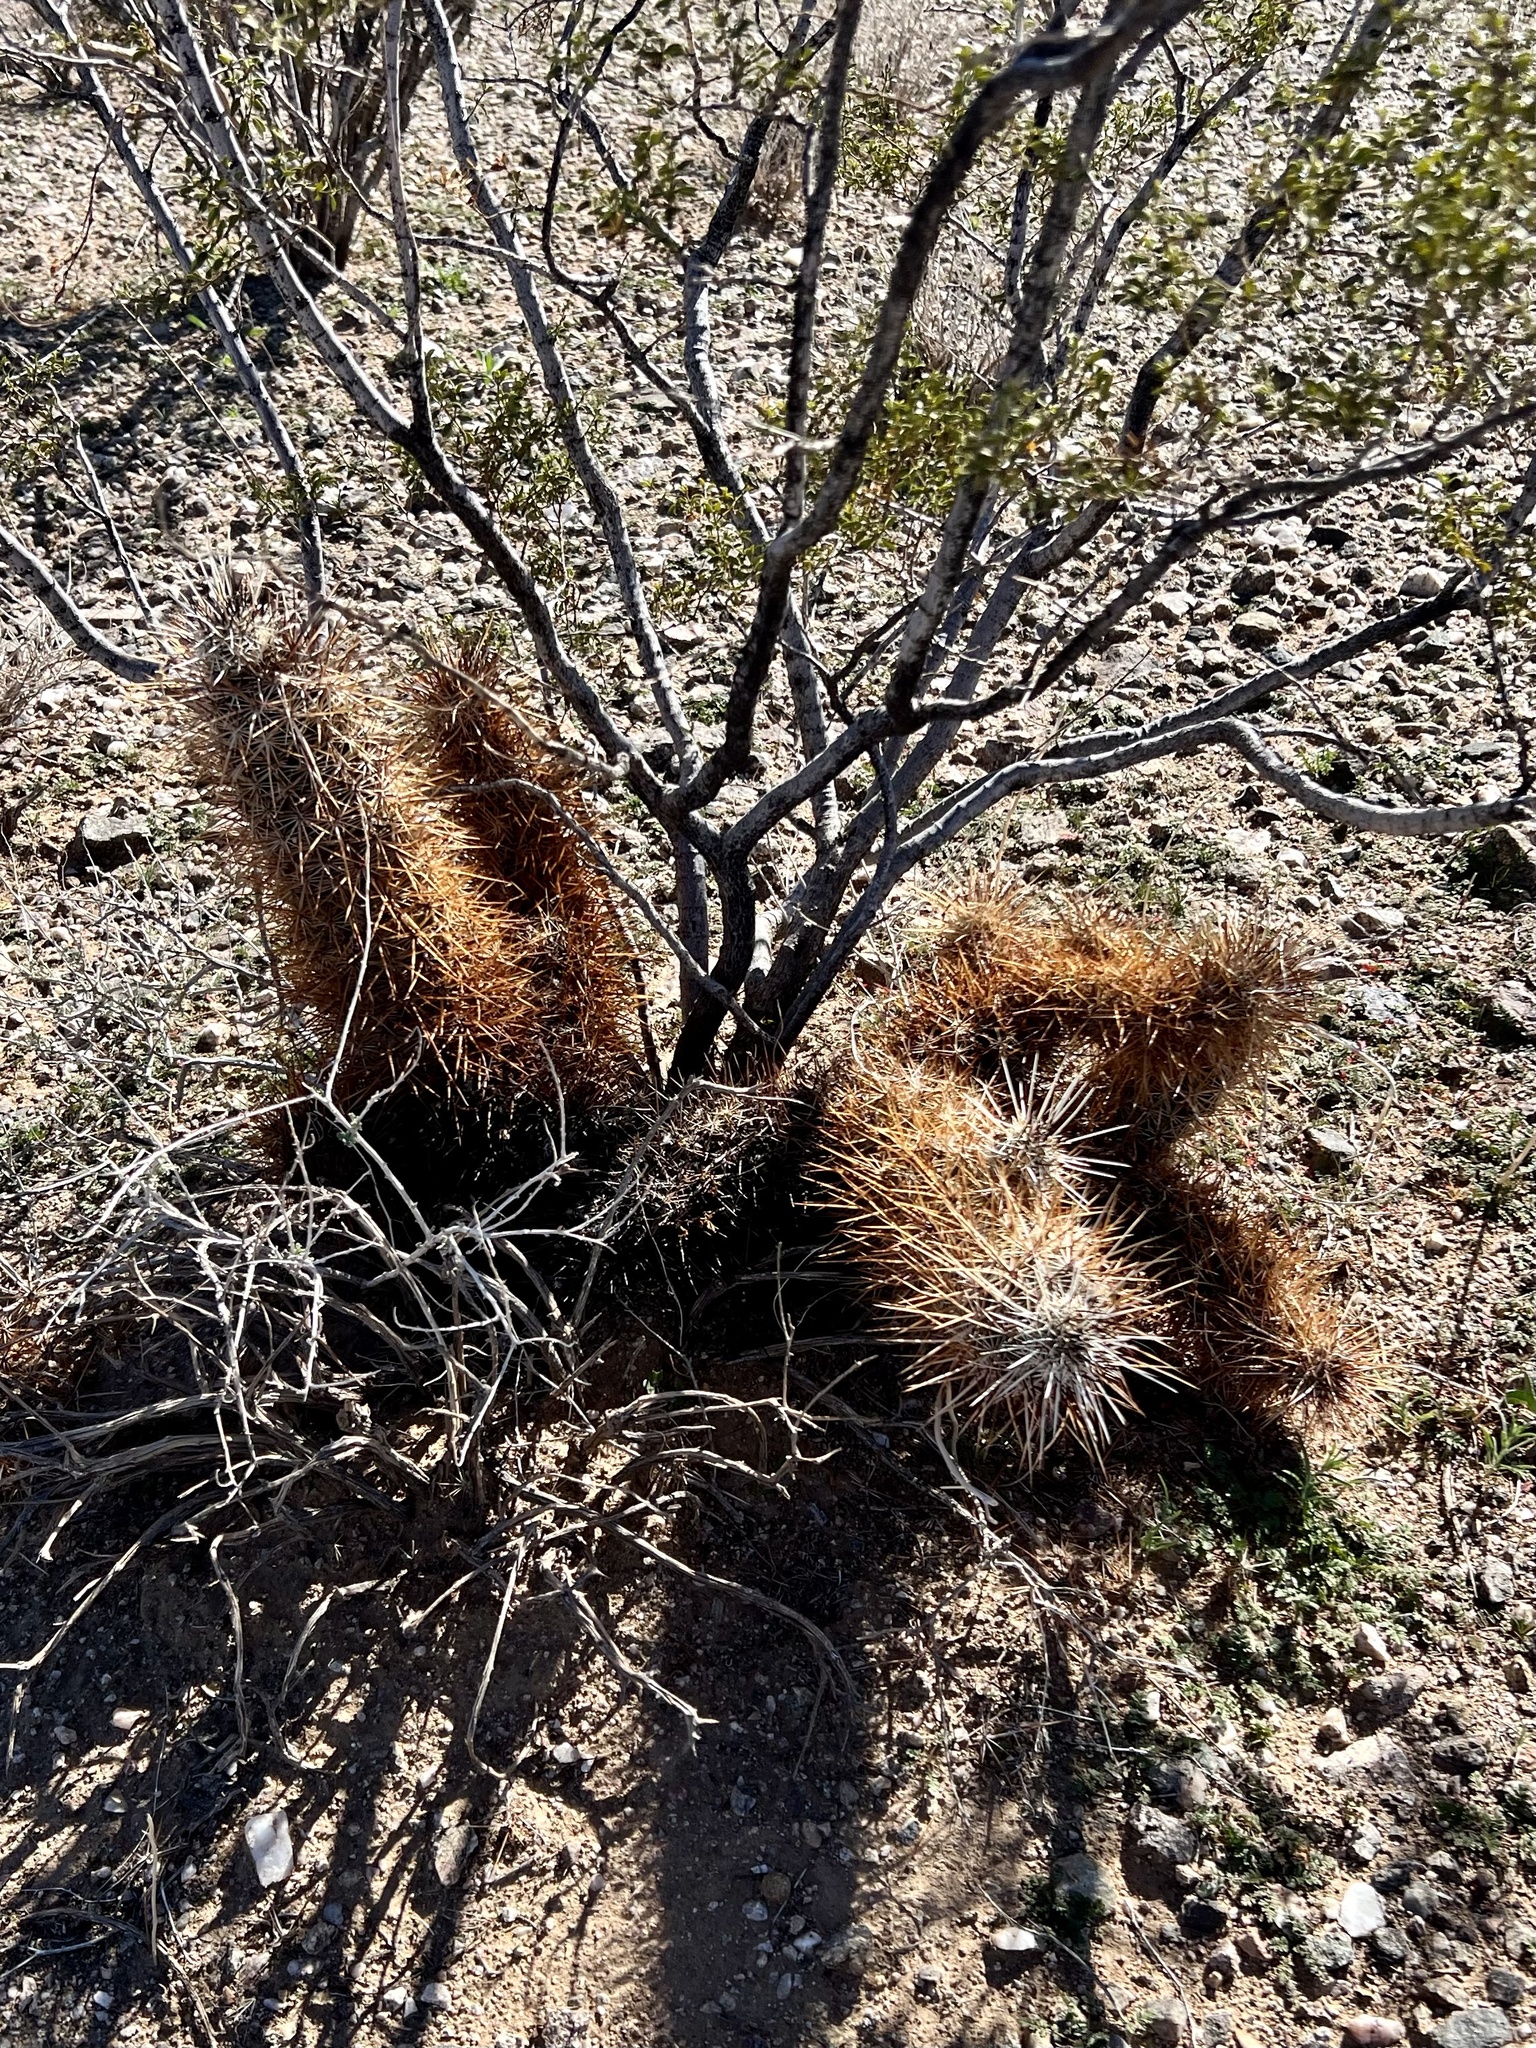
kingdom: Plantae
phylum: Tracheophyta
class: Magnoliopsida
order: Caryophyllales
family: Cactaceae
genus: Echinocereus
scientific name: Echinocereus engelmannii
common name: Engelmann's hedgehog cactus
